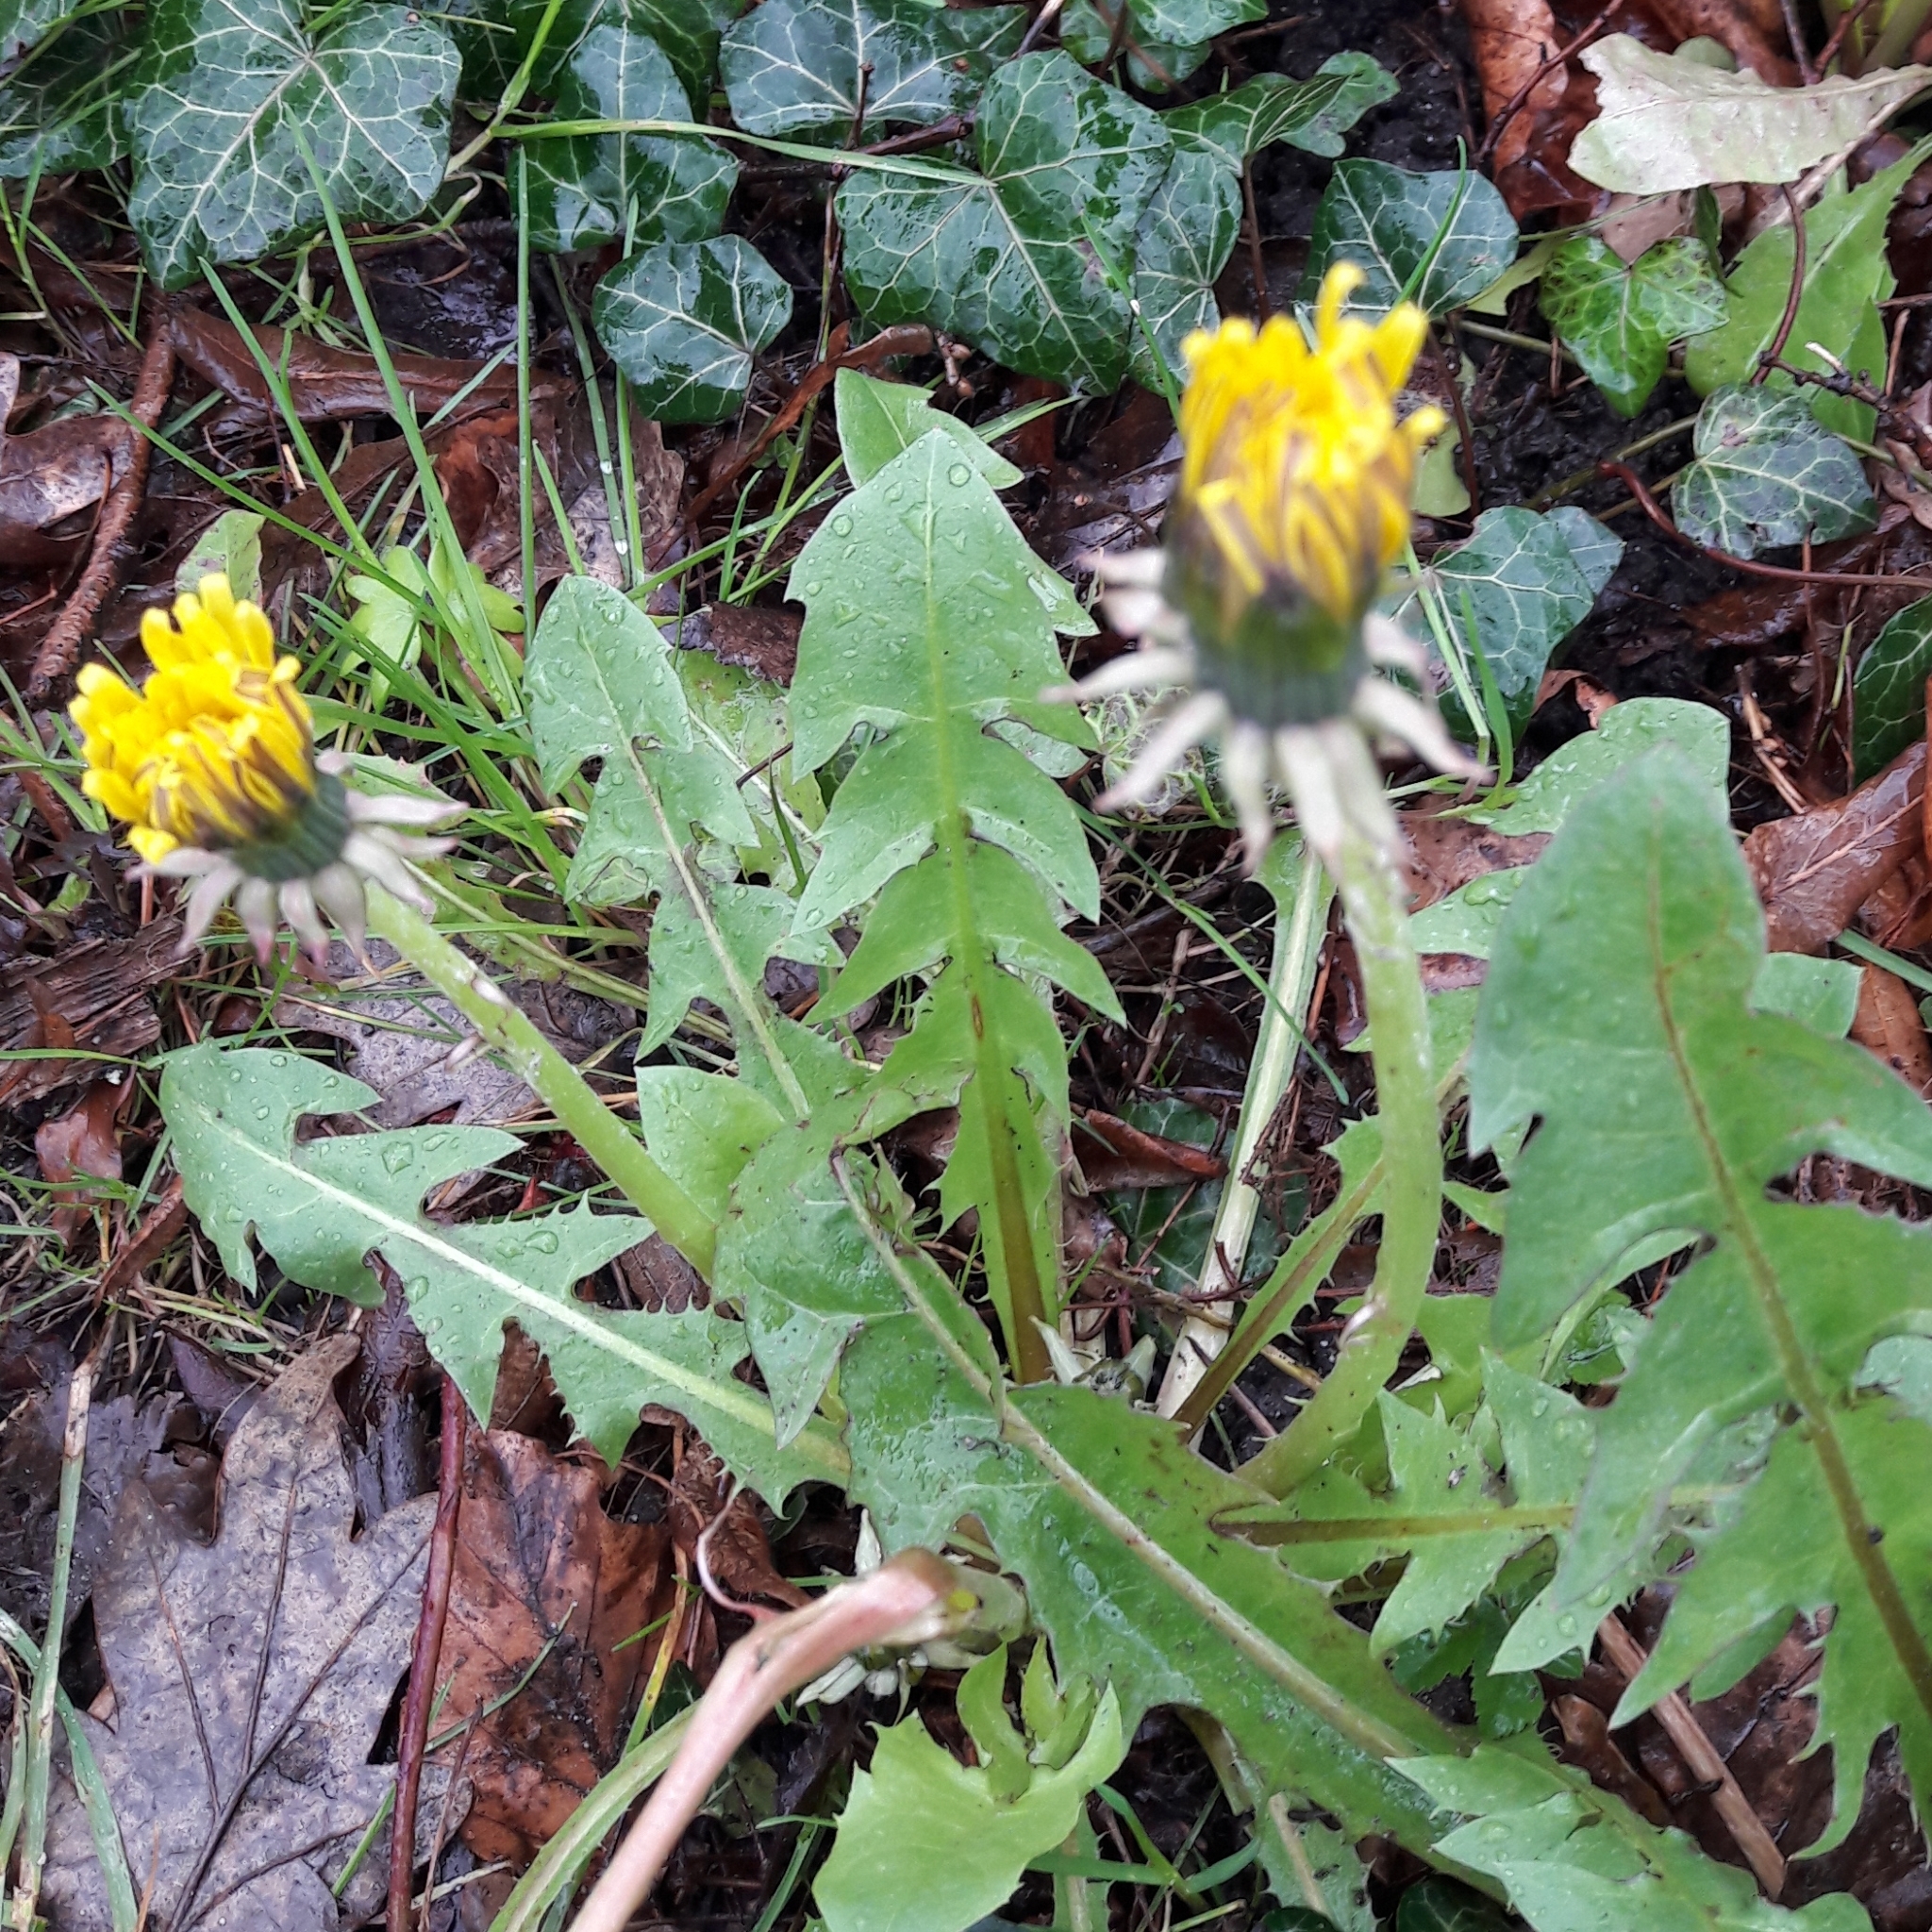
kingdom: Plantae
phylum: Tracheophyta
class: Magnoliopsida
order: Asterales
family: Asteraceae
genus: Taraxacum
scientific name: Taraxacum officinale
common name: Common dandelion
